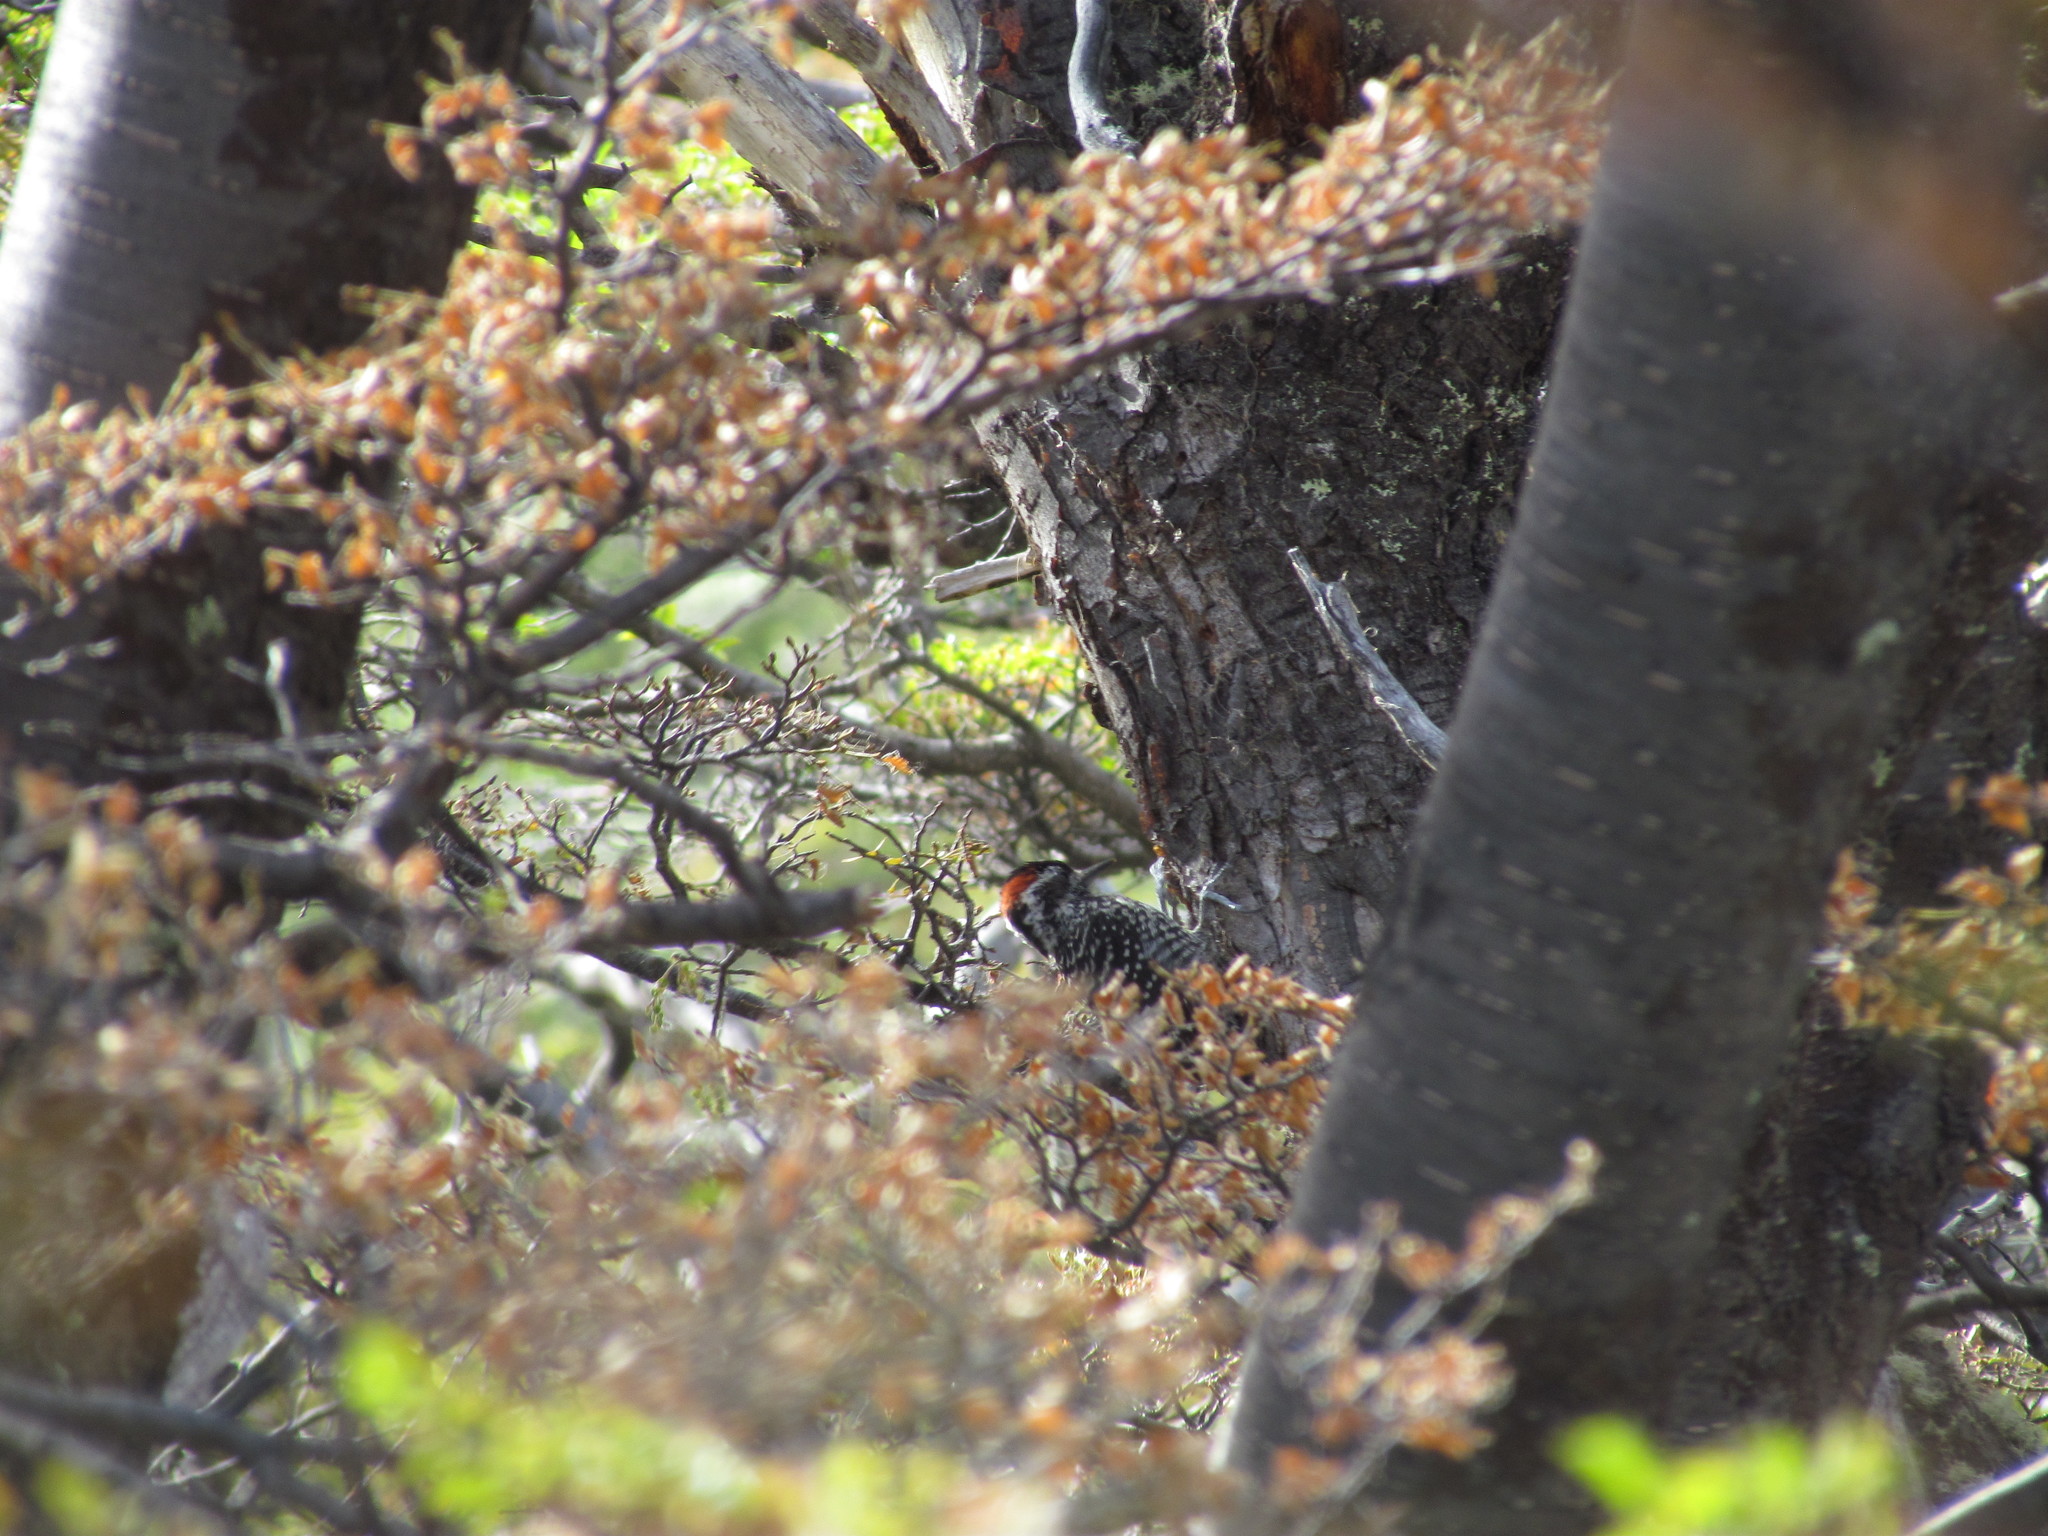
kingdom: Animalia
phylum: Chordata
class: Aves
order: Piciformes
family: Picidae
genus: Veniliornis
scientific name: Veniliornis lignarius
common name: Striped woodpecker
